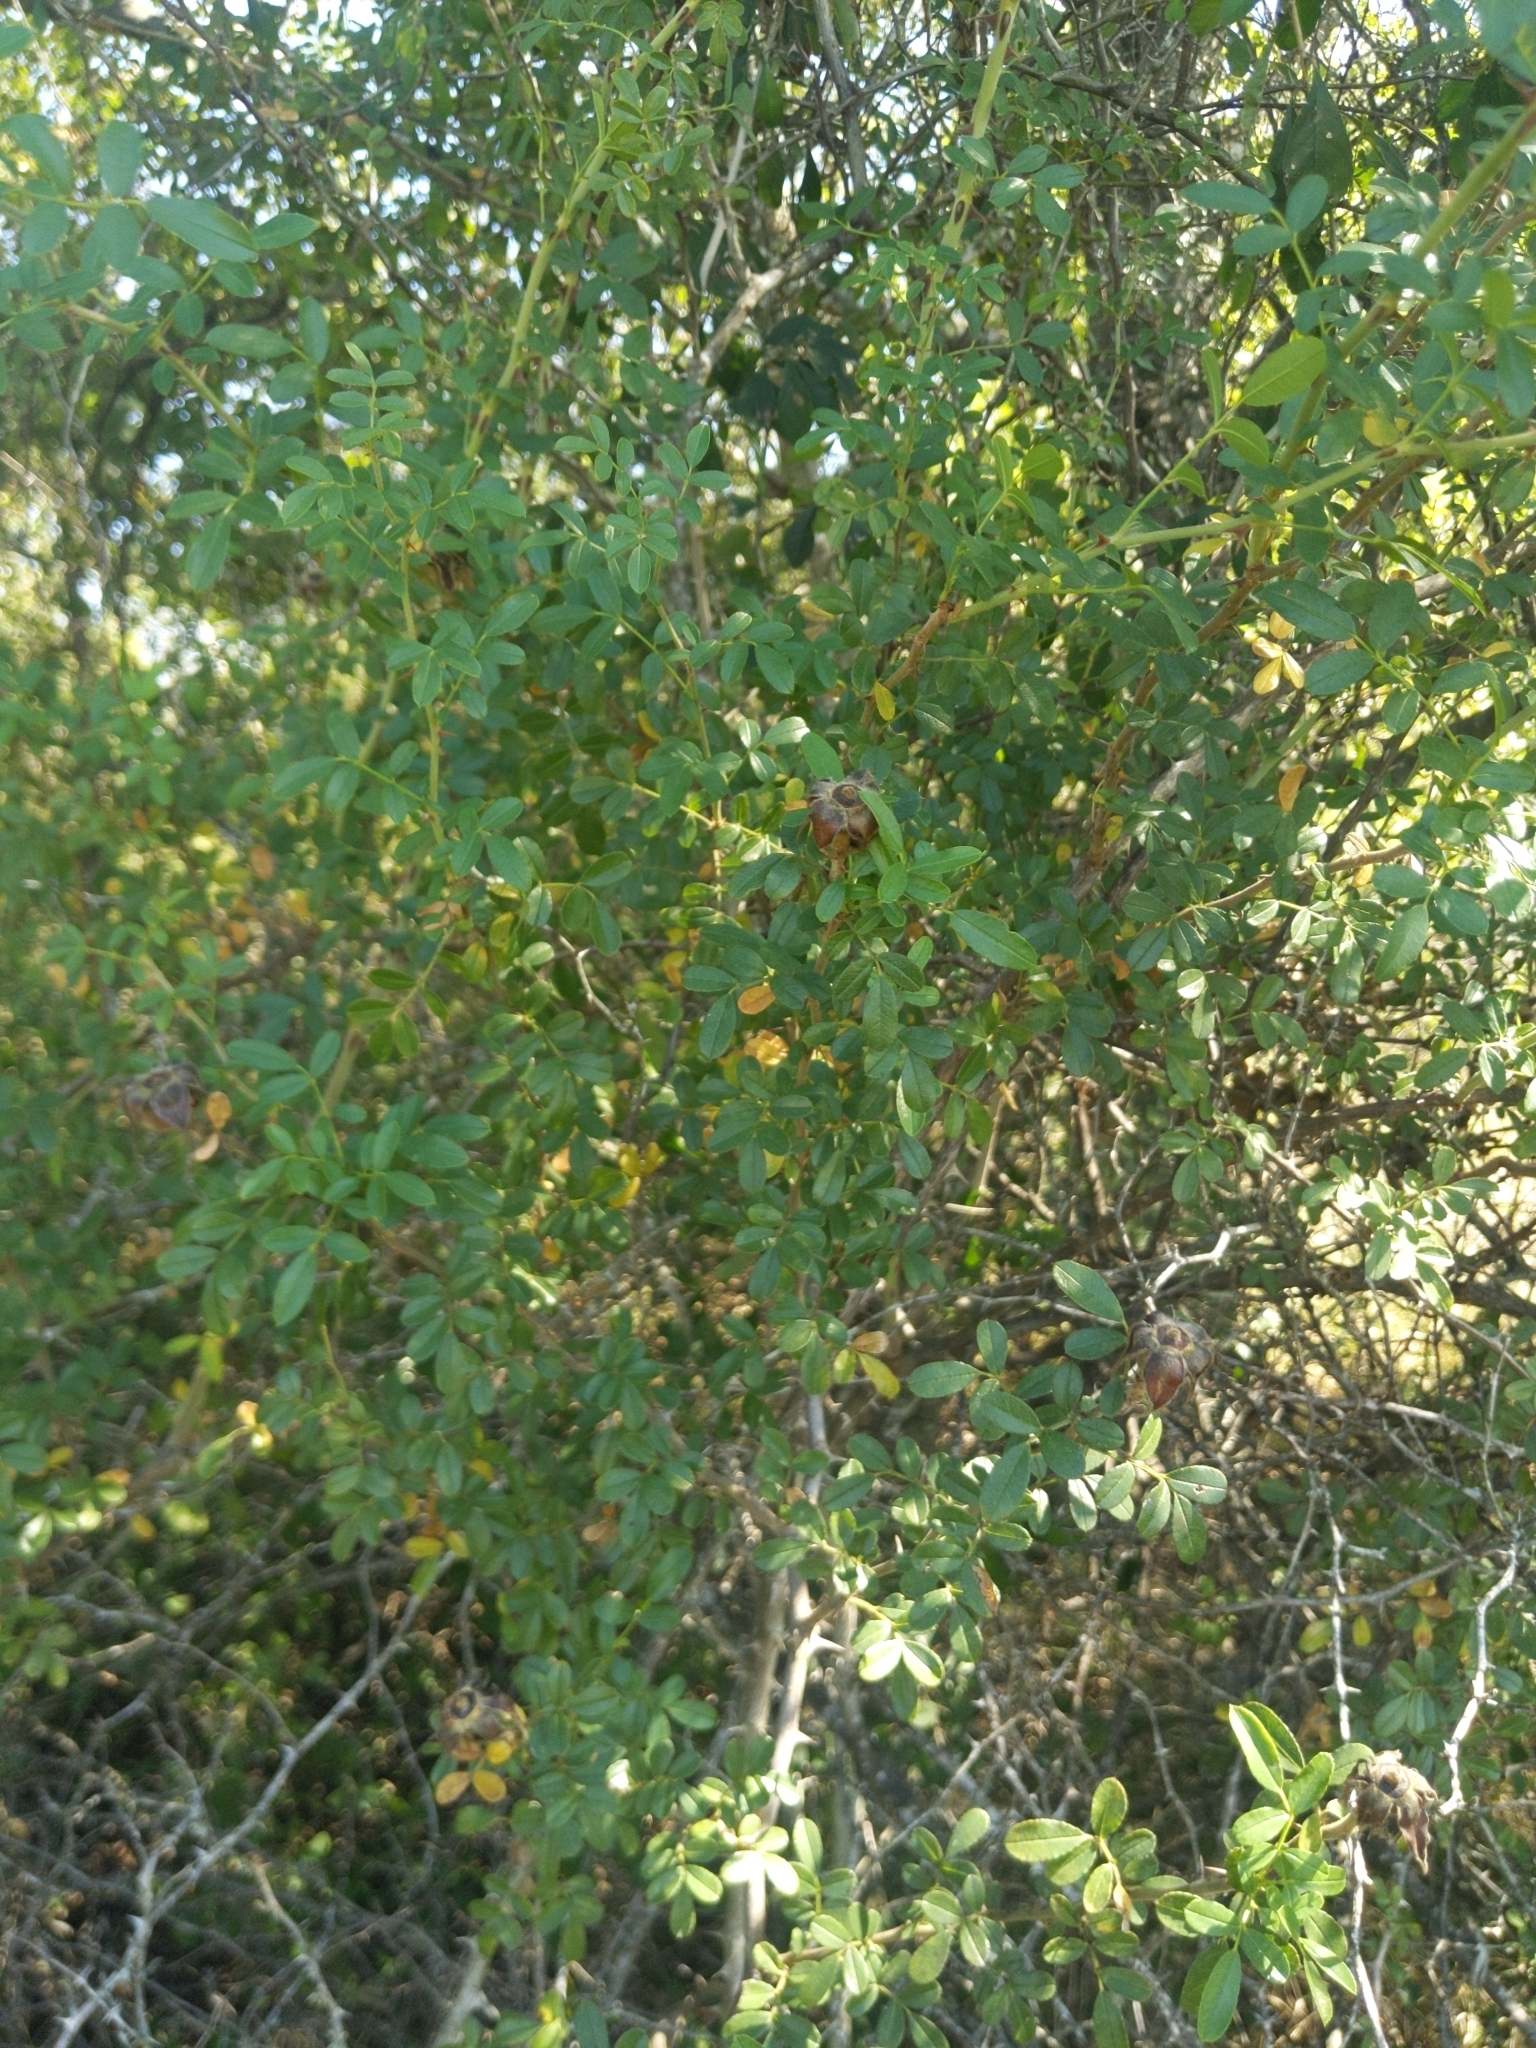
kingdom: Plantae
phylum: Tracheophyta
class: Magnoliopsida
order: Rosales
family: Rosaceae
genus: Rosa
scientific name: Rosa bracteata
